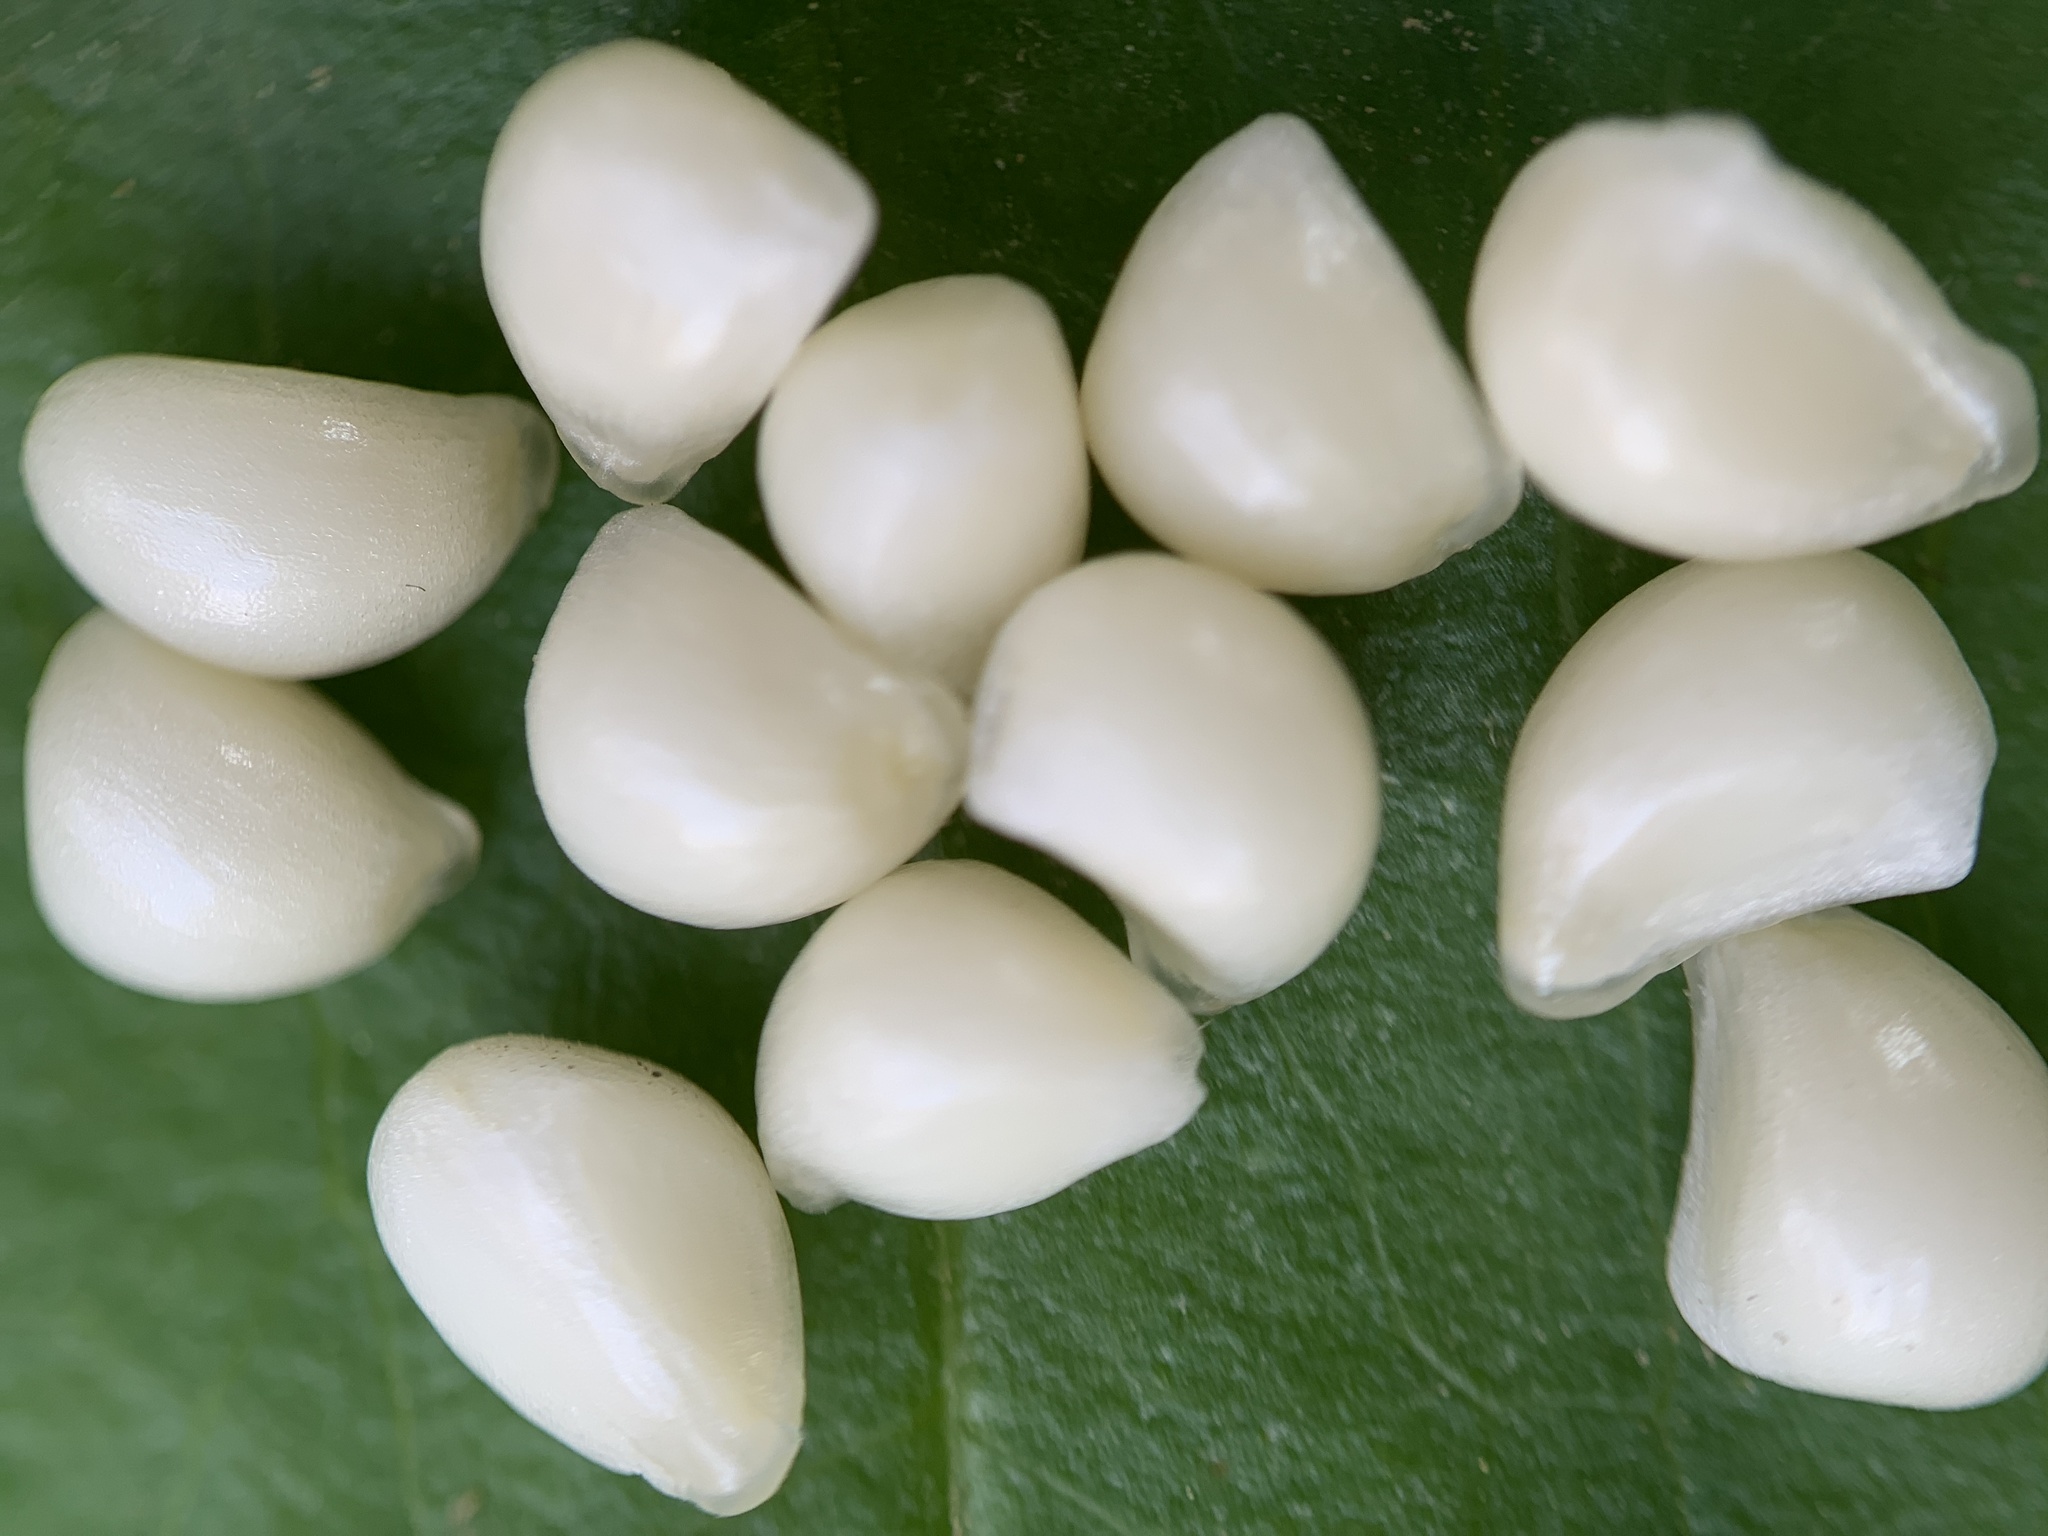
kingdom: Plantae
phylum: Tracheophyta
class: Liliopsida
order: Liliales
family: Liliaceae
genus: Prosartes
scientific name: Prosartes trachycarpa
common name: Rough-fruit fairy-bells
